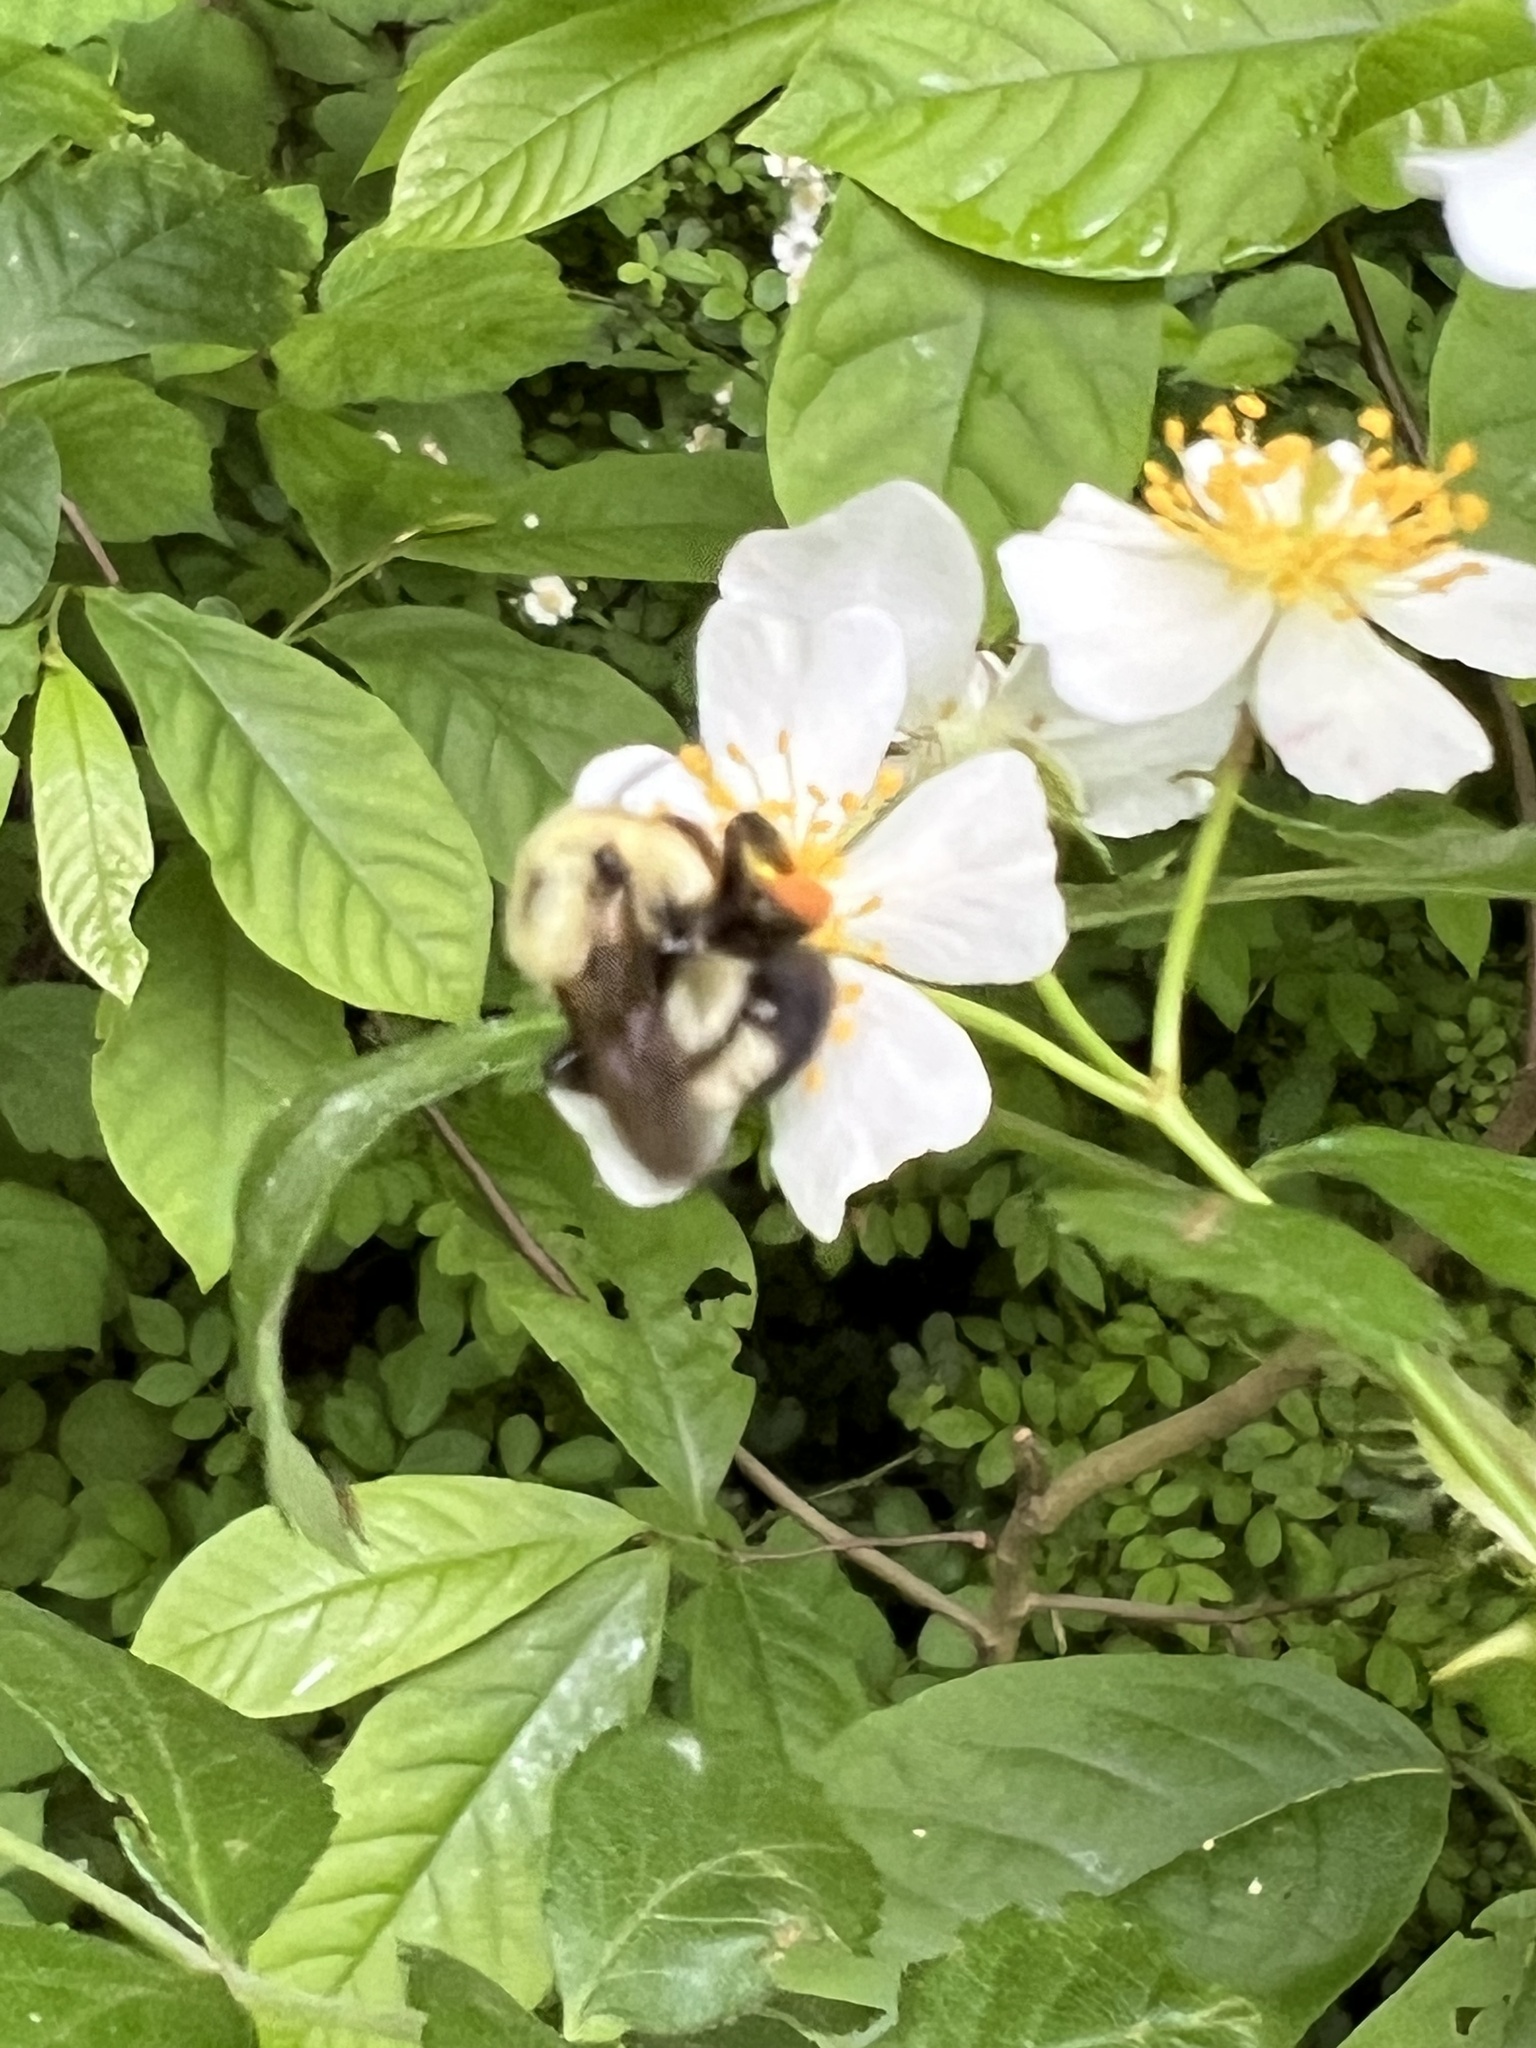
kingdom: Animalia
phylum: Arthropoda
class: Insecta
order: Hymenoptera
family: Apidae
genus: Bombus
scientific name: Bombus bimaculatus
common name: Two-spotted bumble bee
